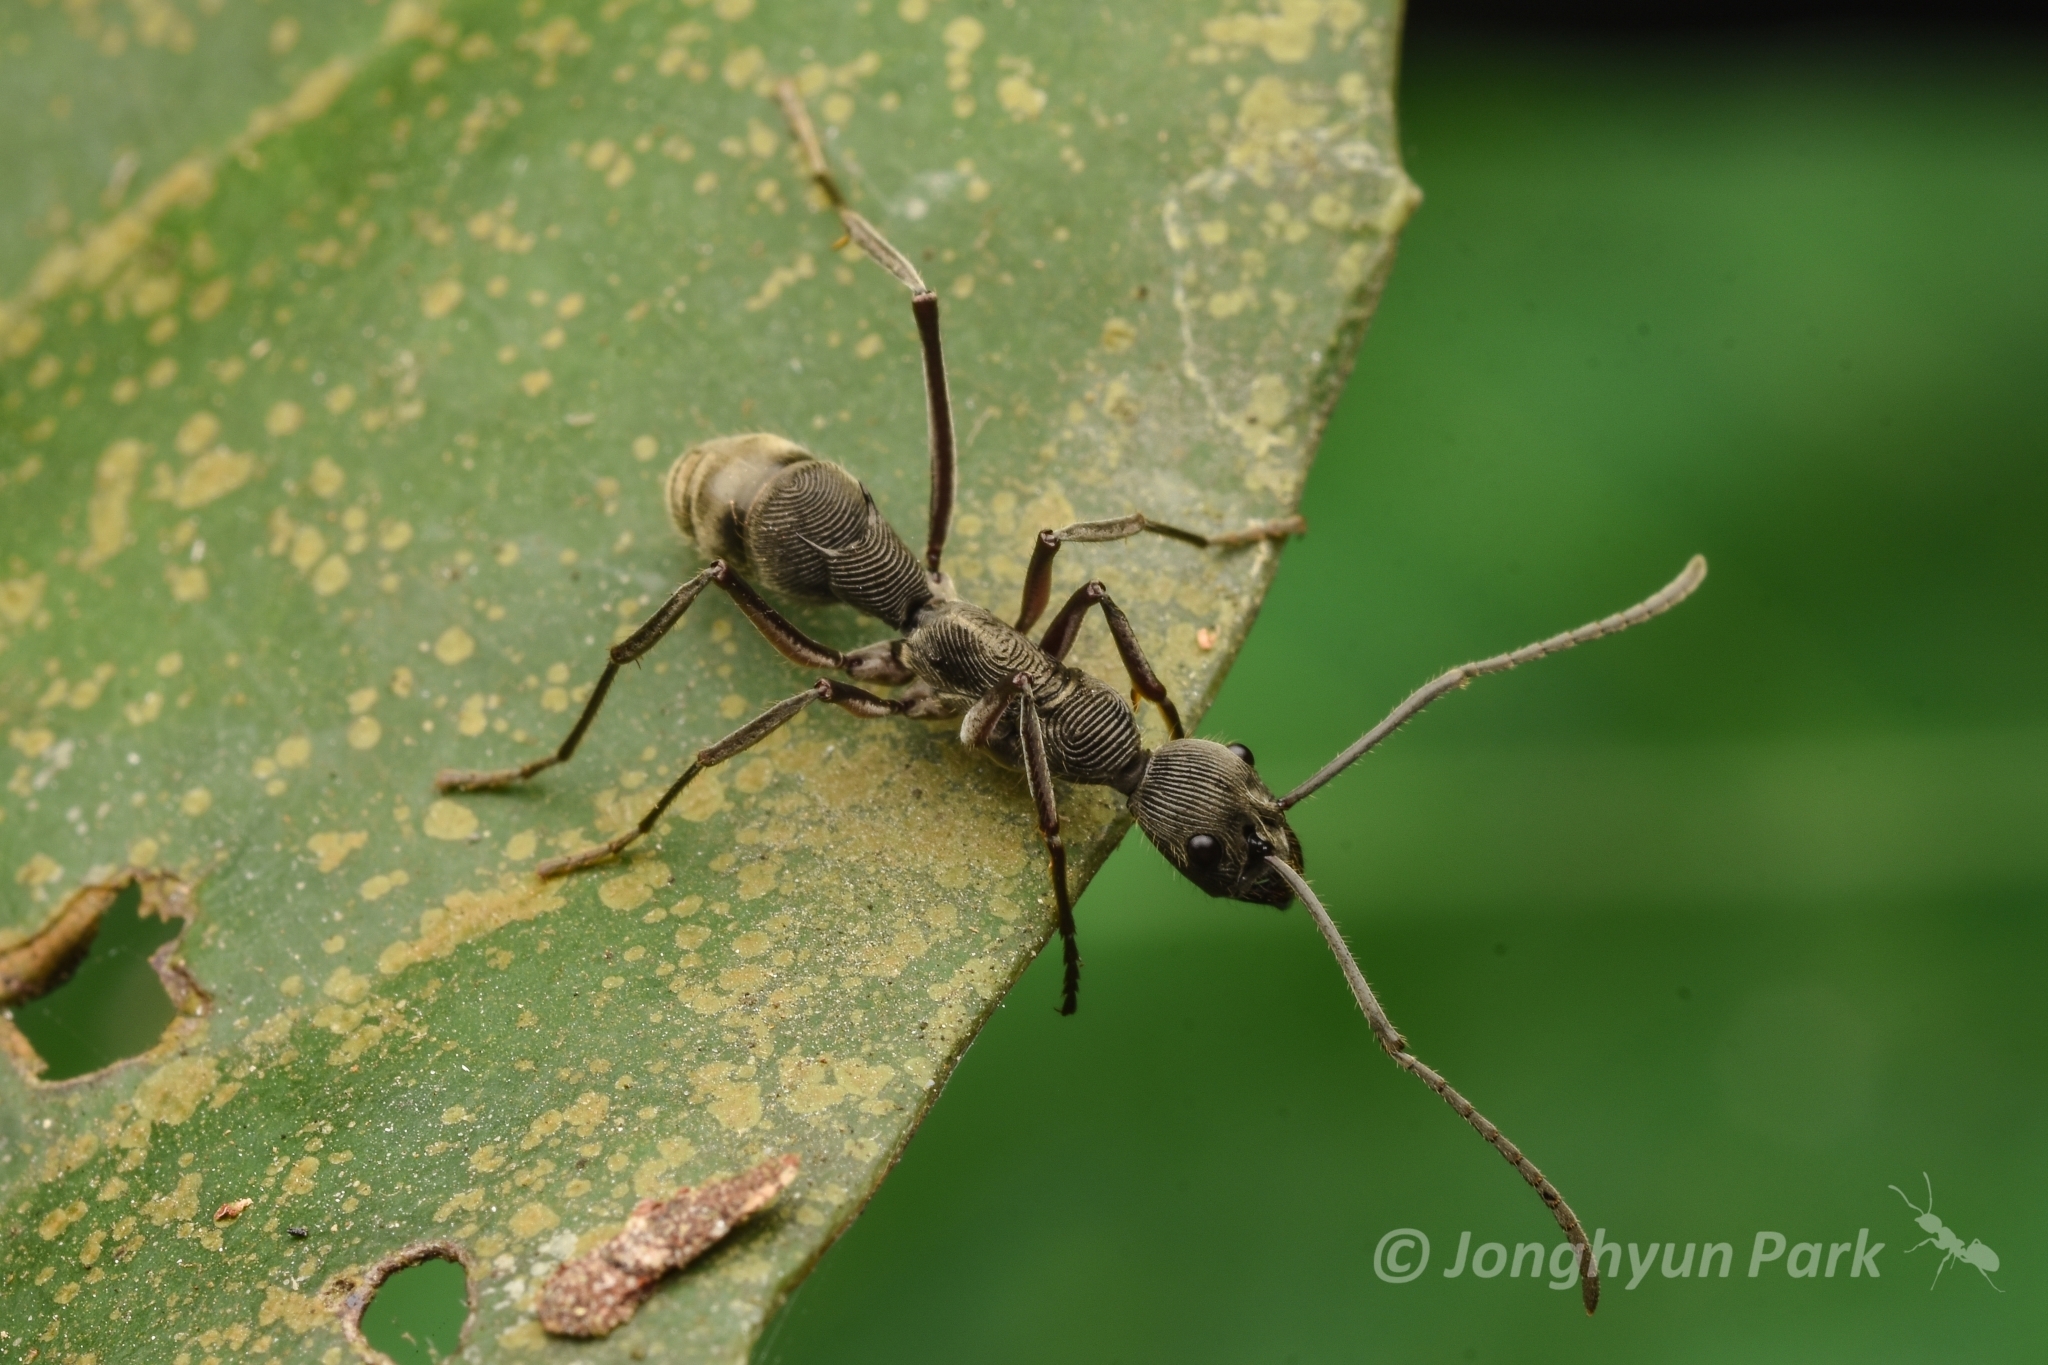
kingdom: Animalia
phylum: Arthropoda
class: Insecta
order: Hymenoptera
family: Formicidae
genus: Diacamma
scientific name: Diacamma geometricum
